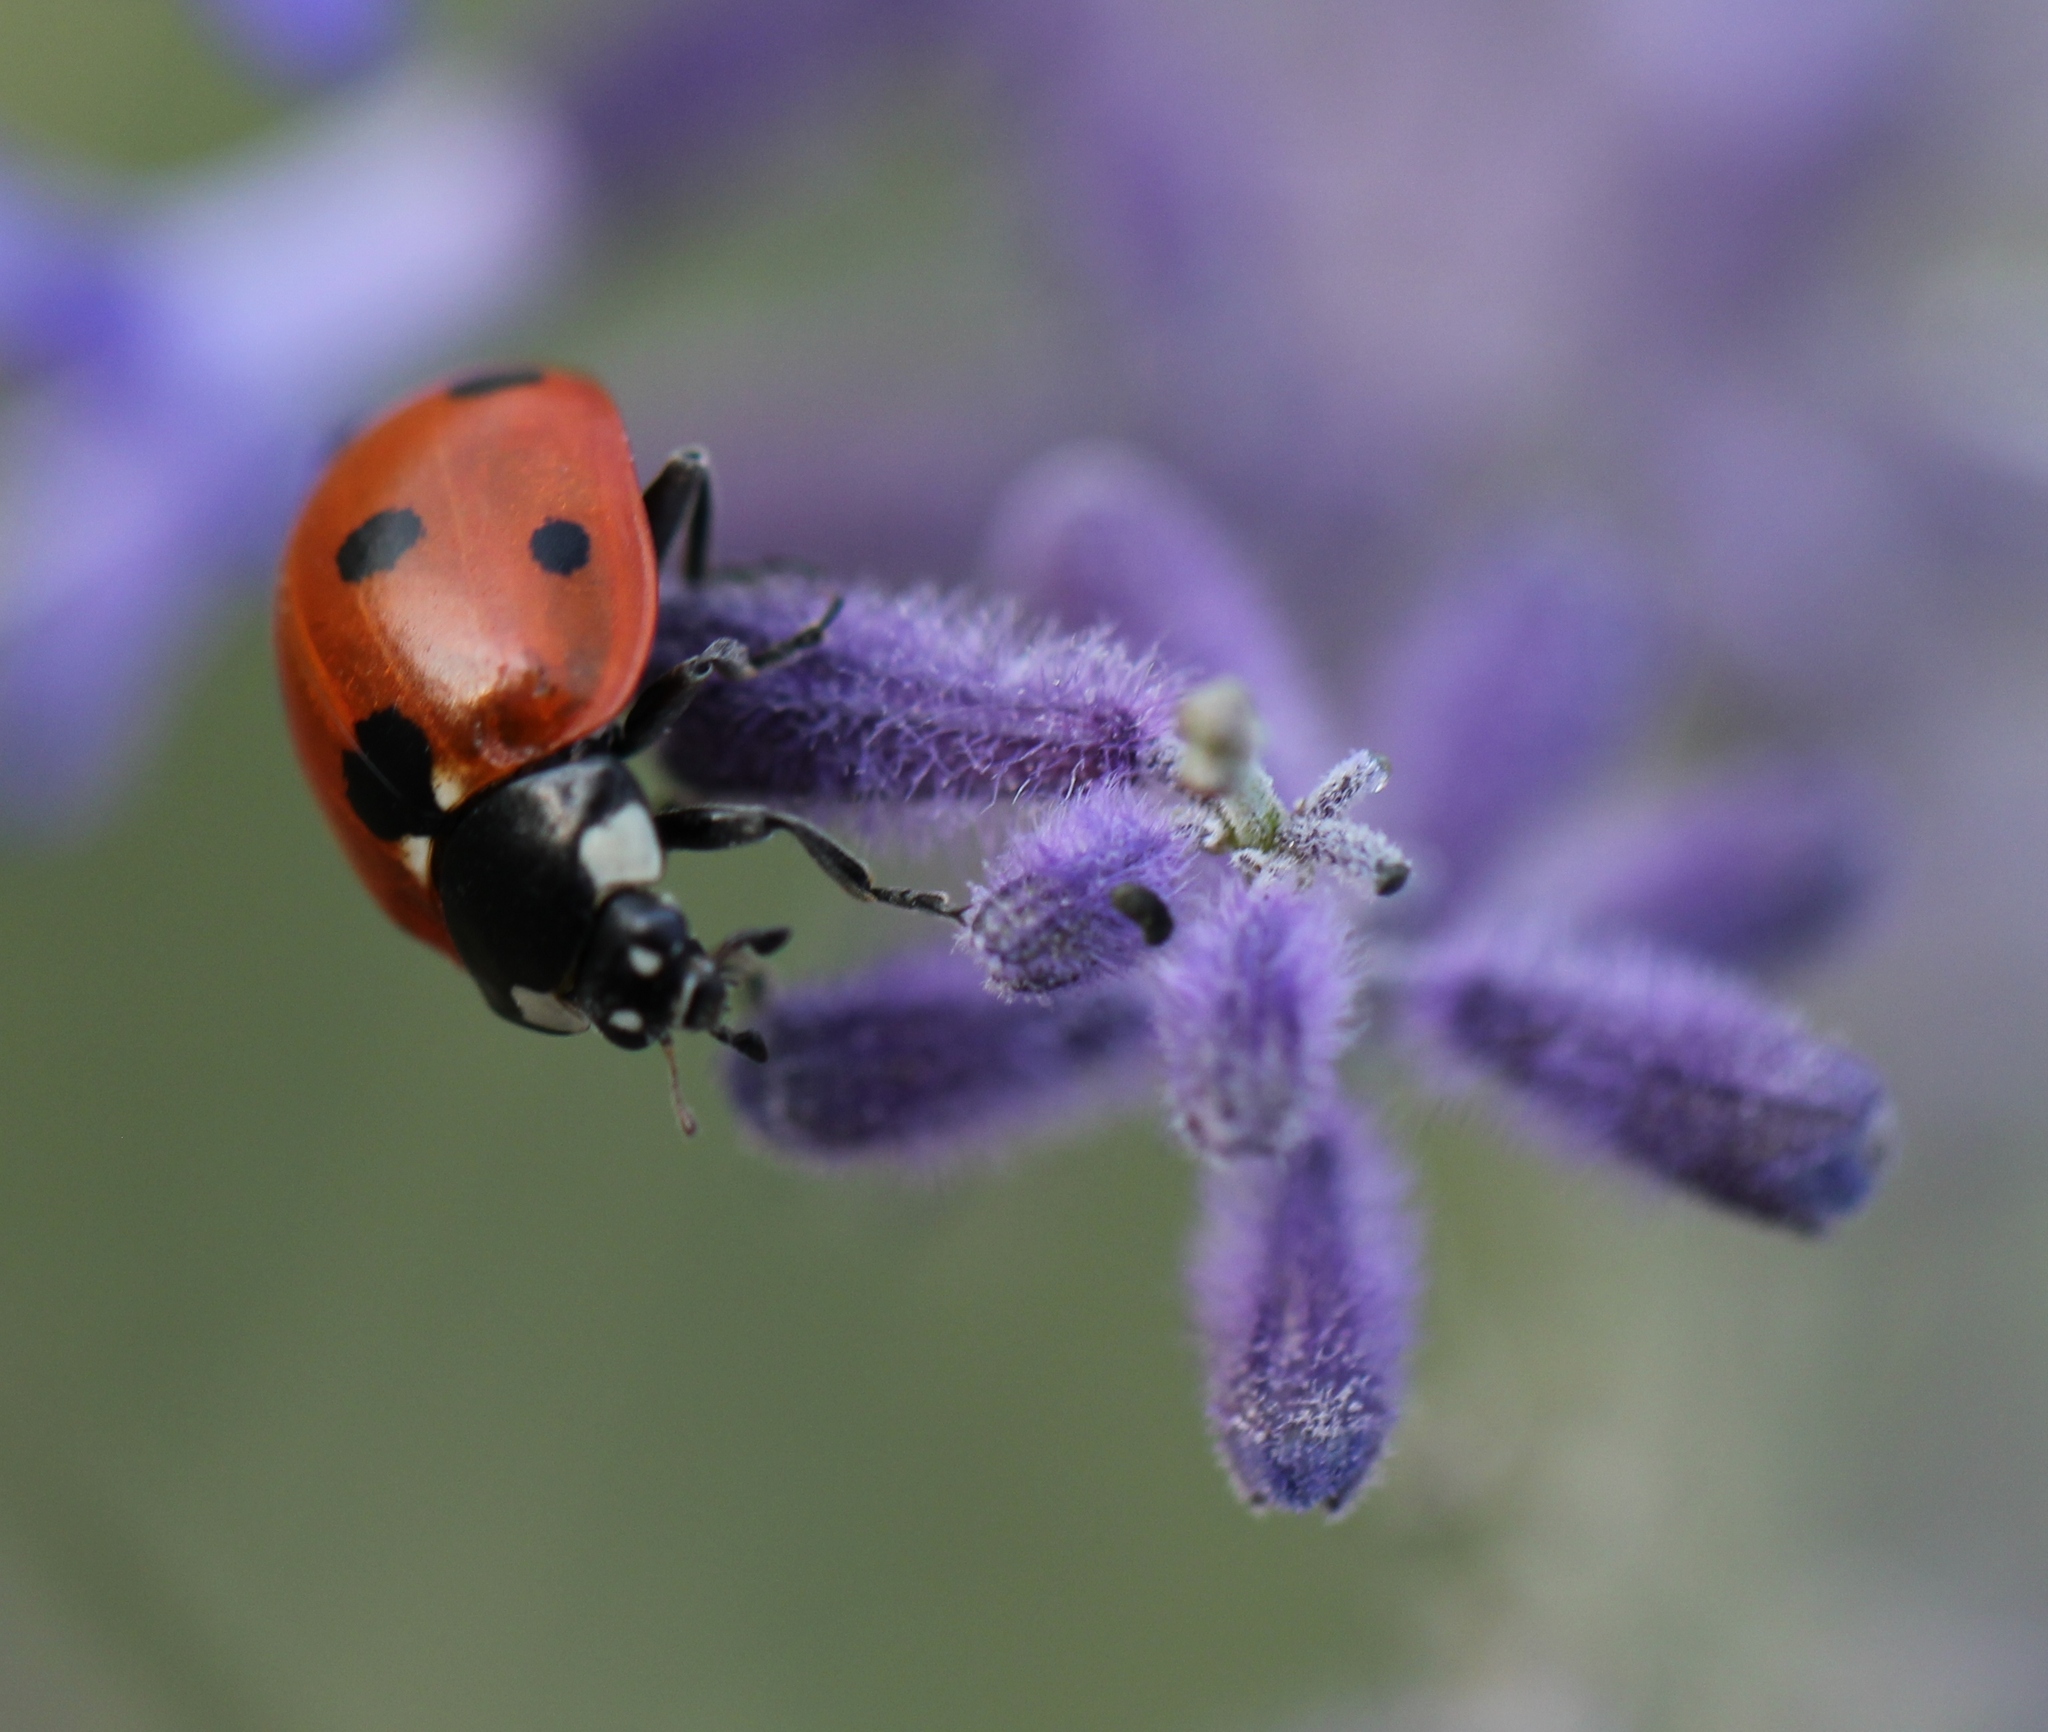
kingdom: Animalia
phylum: Arthropoda
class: Insecta
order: Coleoptera
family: Coccinellidae
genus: Coccinella
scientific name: Coccinella septempunctata
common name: Sevenspotted lady beetle
